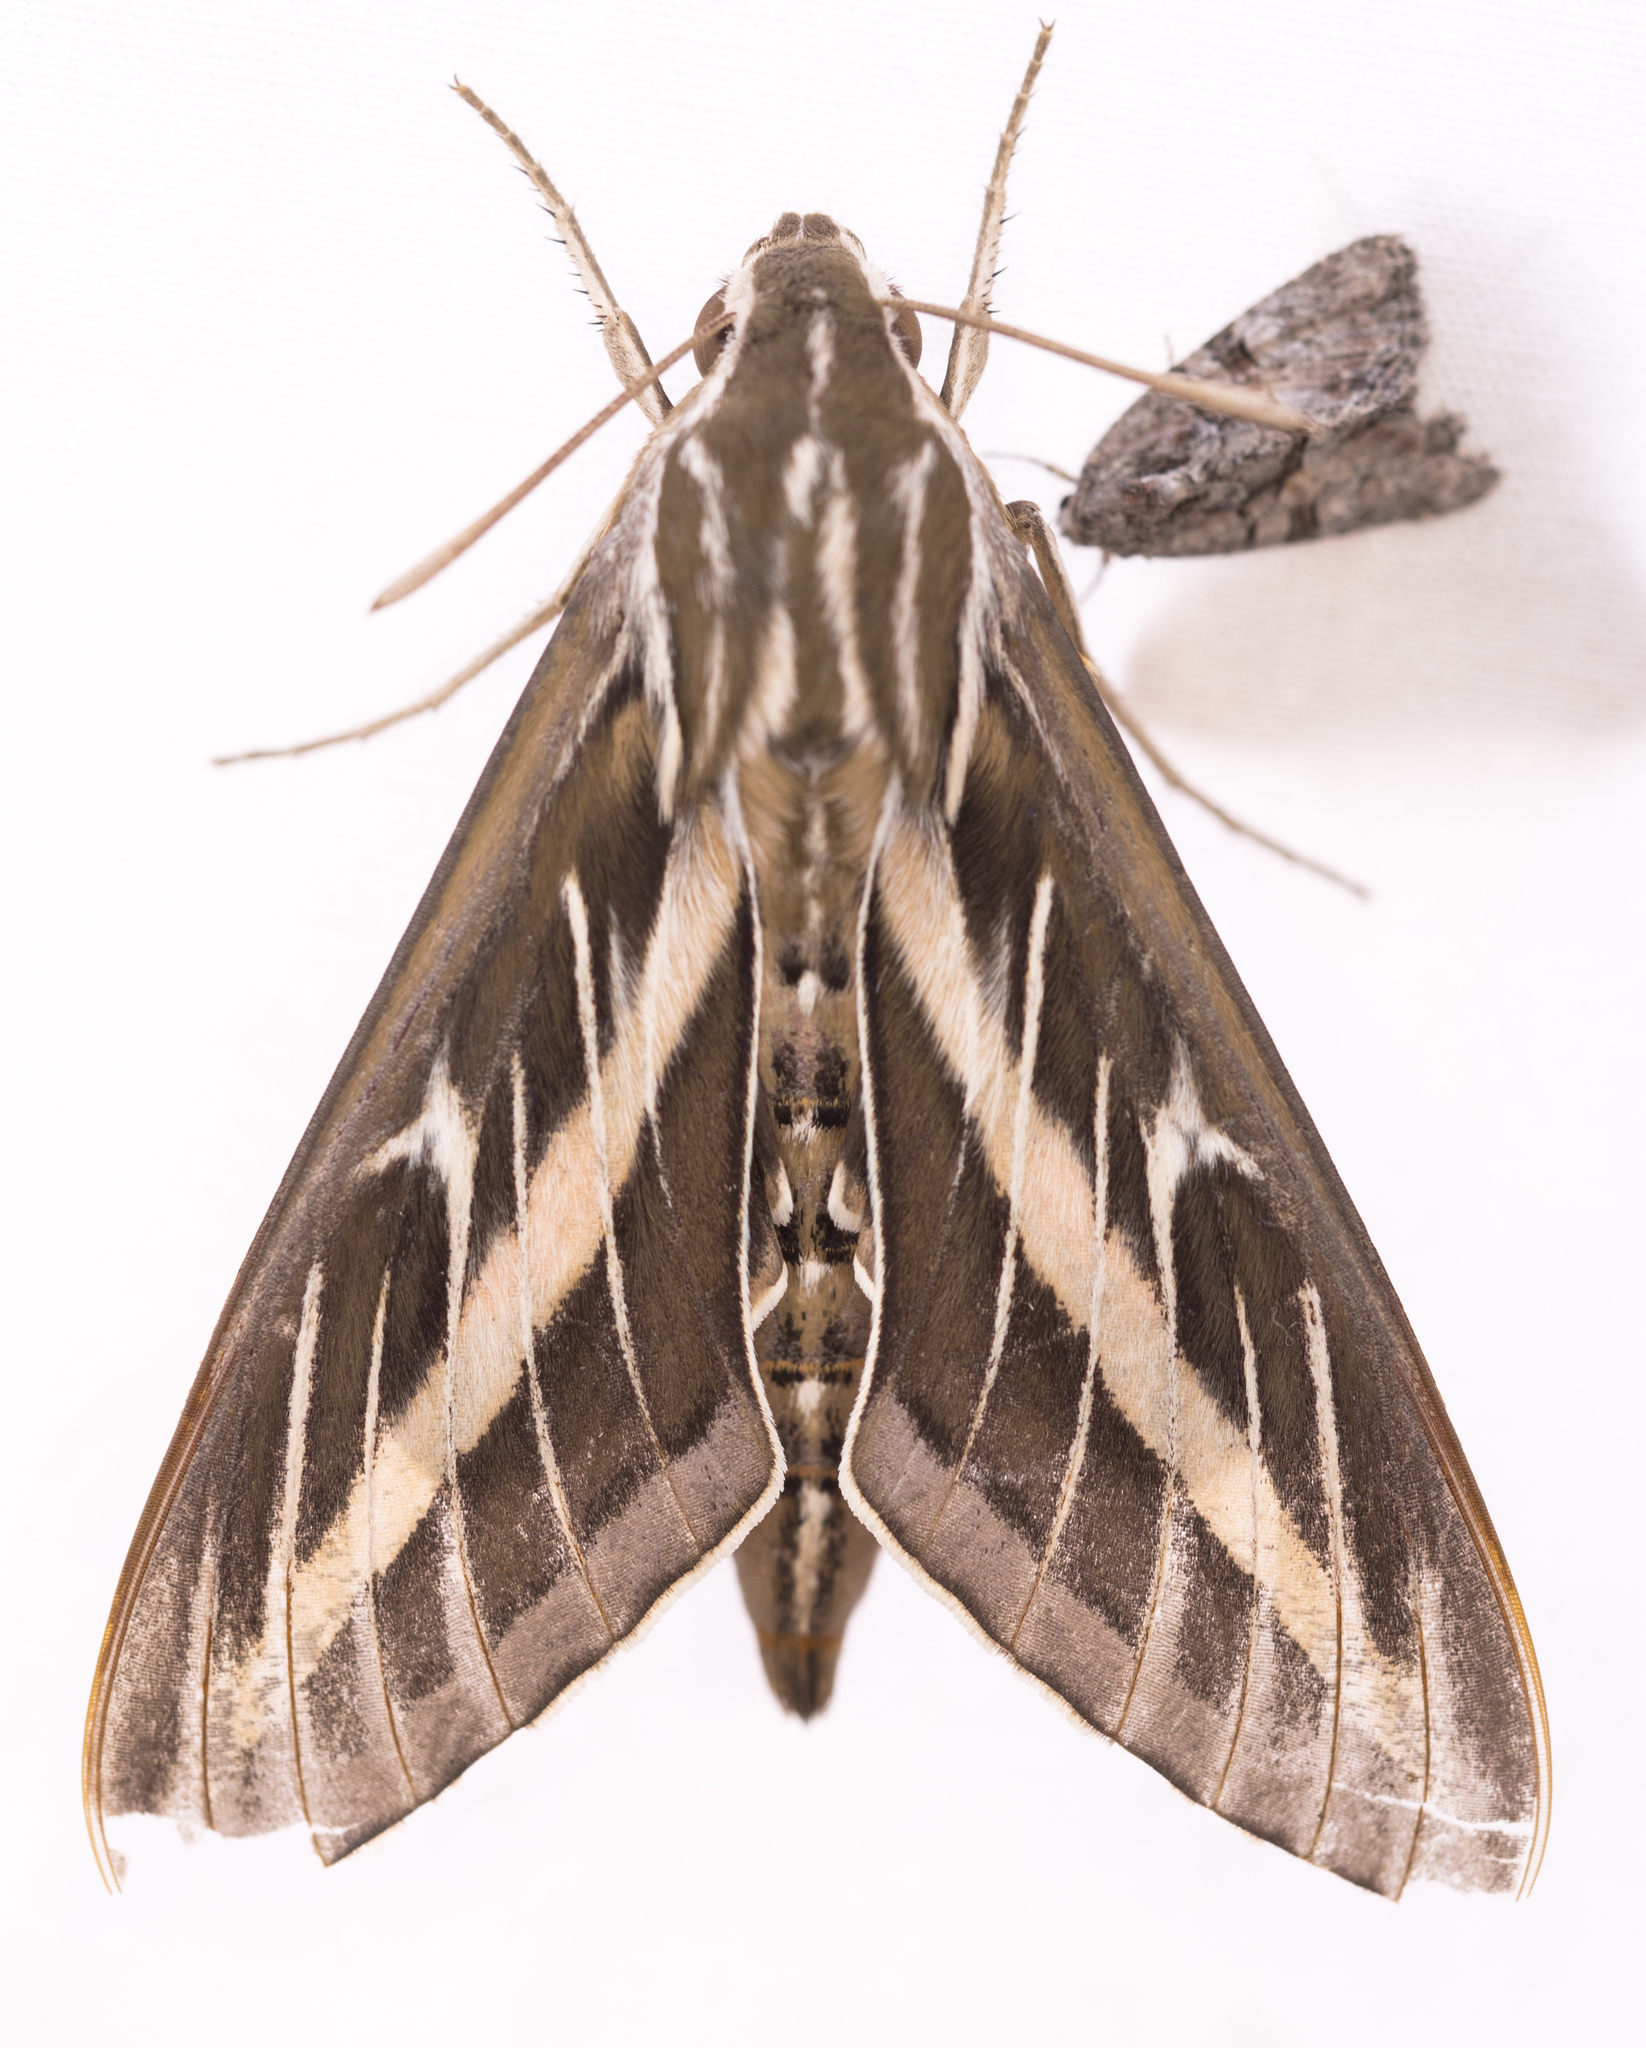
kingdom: Animalia
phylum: Arthropoda
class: Insecta
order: Lepidoptera
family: Sphingidae
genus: Hyles
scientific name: Hyles lineata
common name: White-lined sphinx
